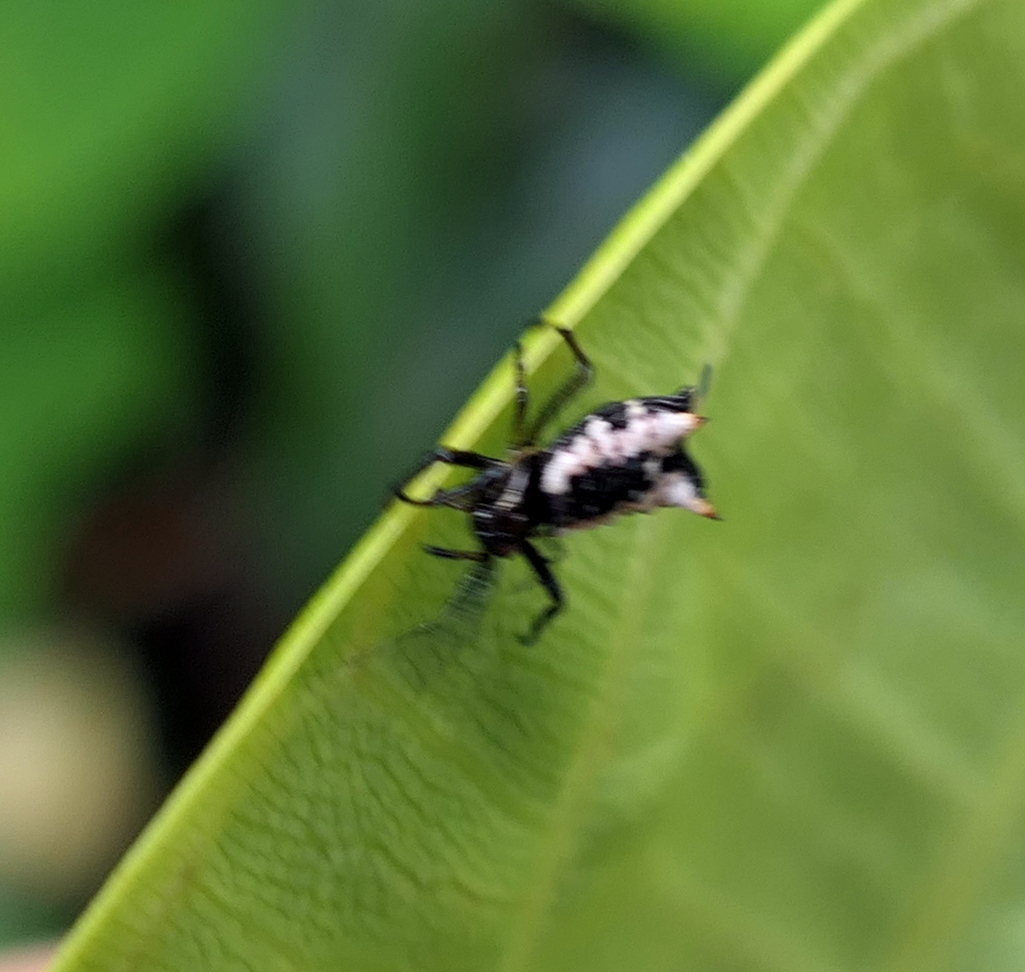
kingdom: Animalia
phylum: Arthropoda
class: Arachnida
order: Araneae
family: Araneidae
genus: Micrathena
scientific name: Micrathena patruelis
